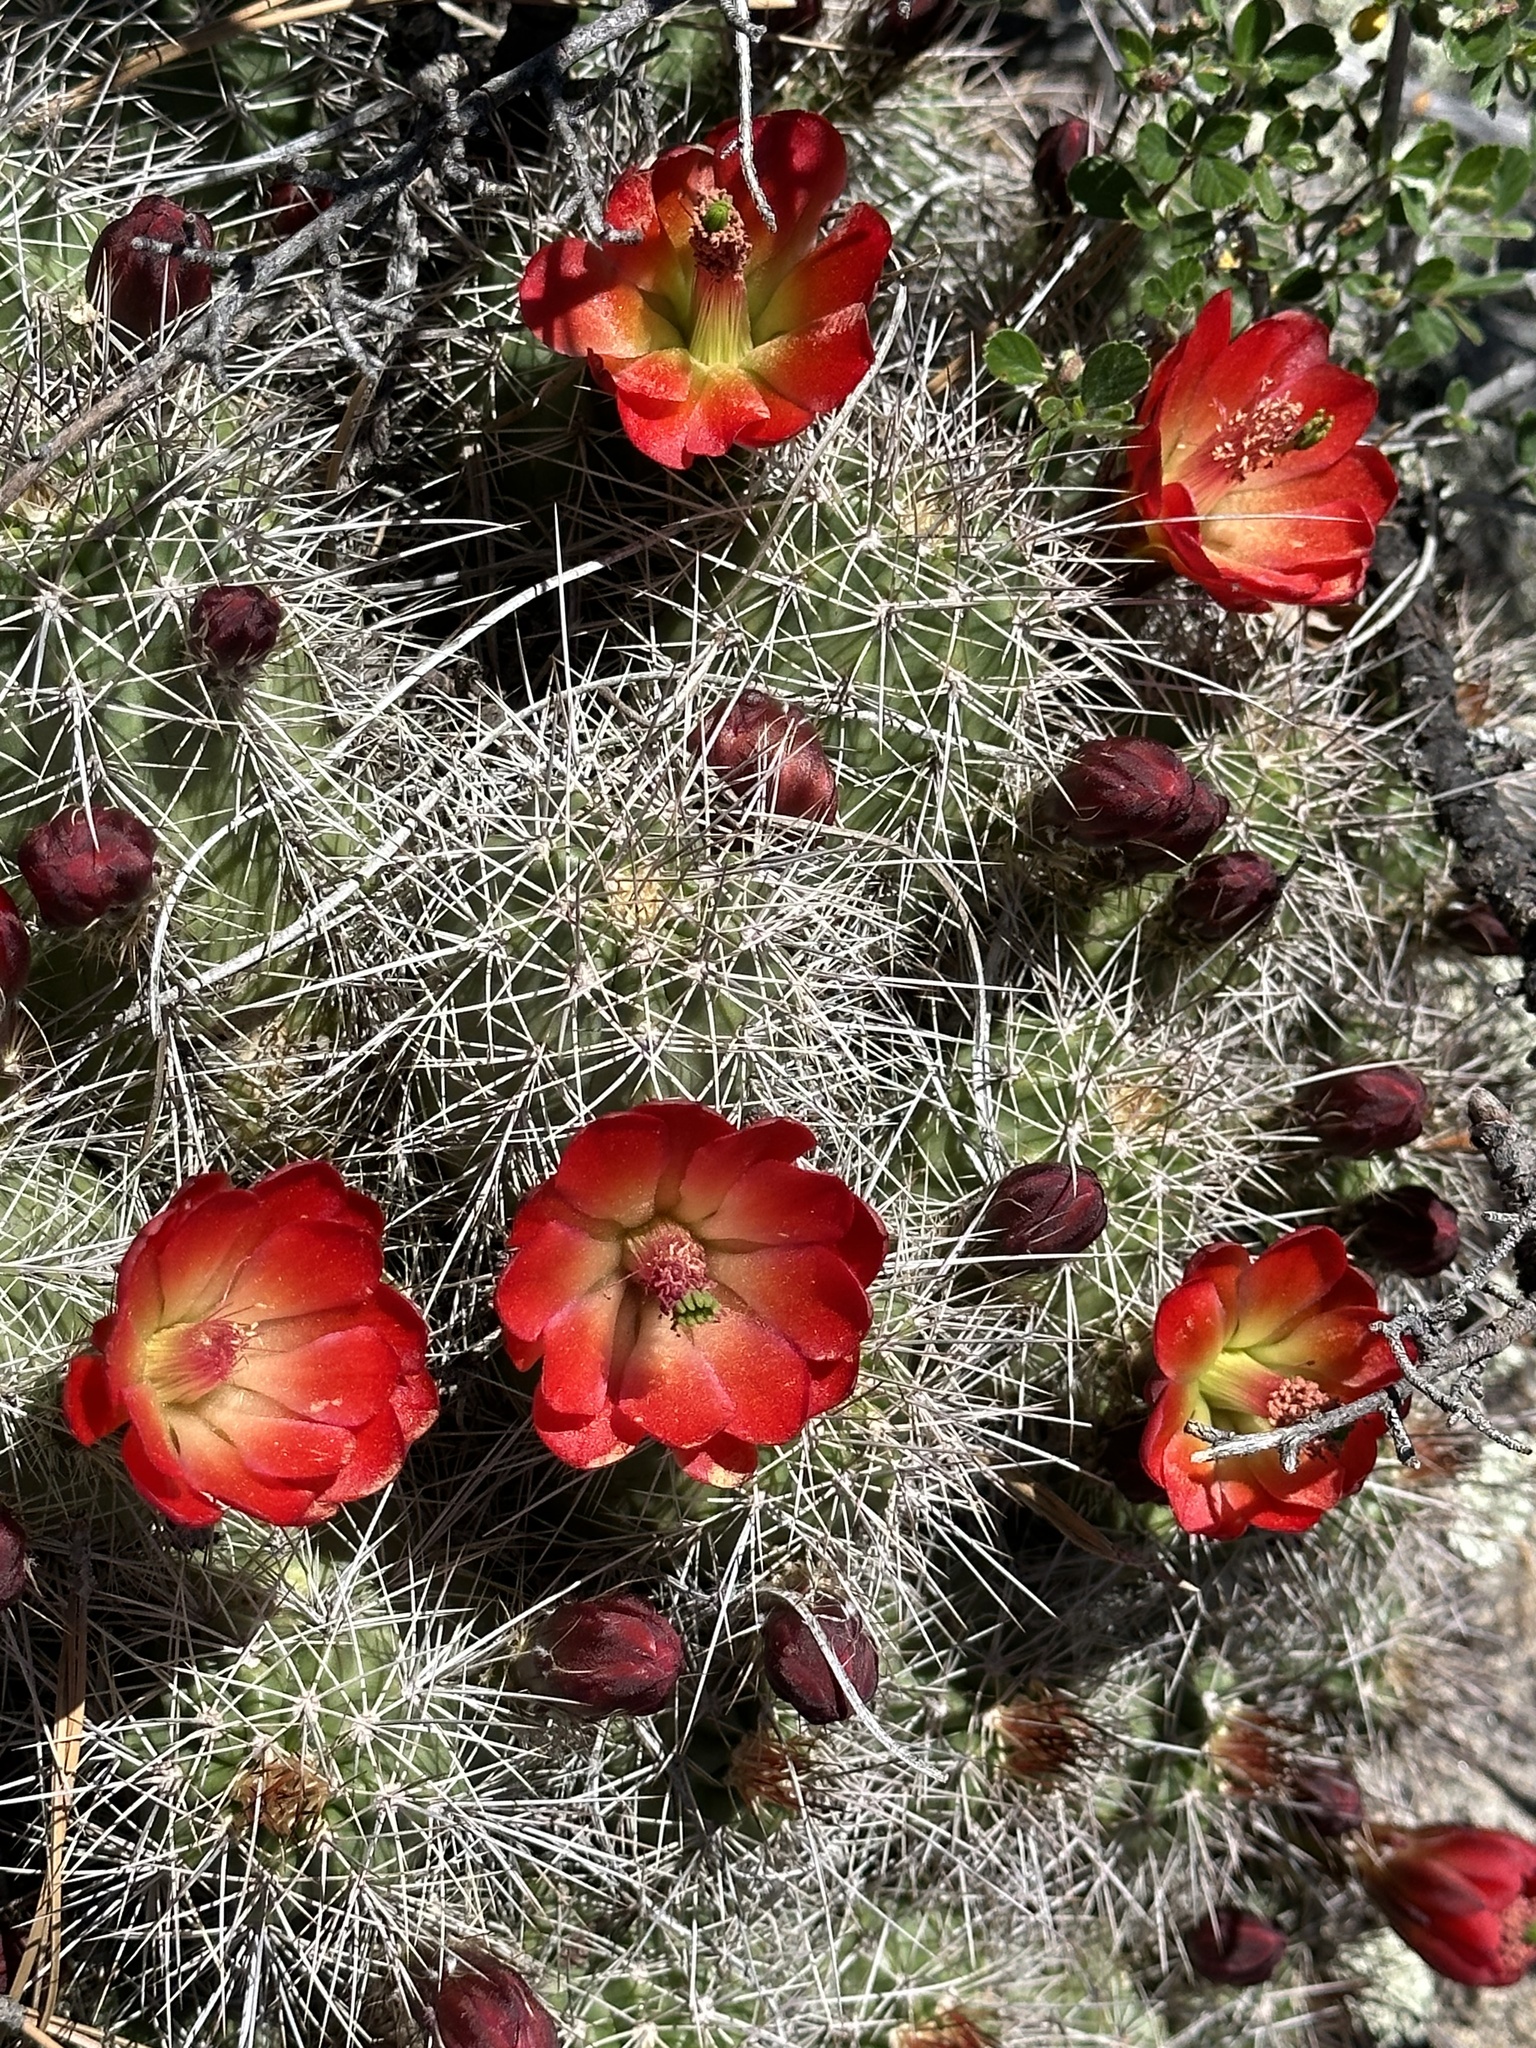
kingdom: Plantae
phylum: Tracheophyta
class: Magnoliopsida
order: Caryophyllales
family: Cactaceae
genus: Echinocereus
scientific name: Echinocereus bakeri
